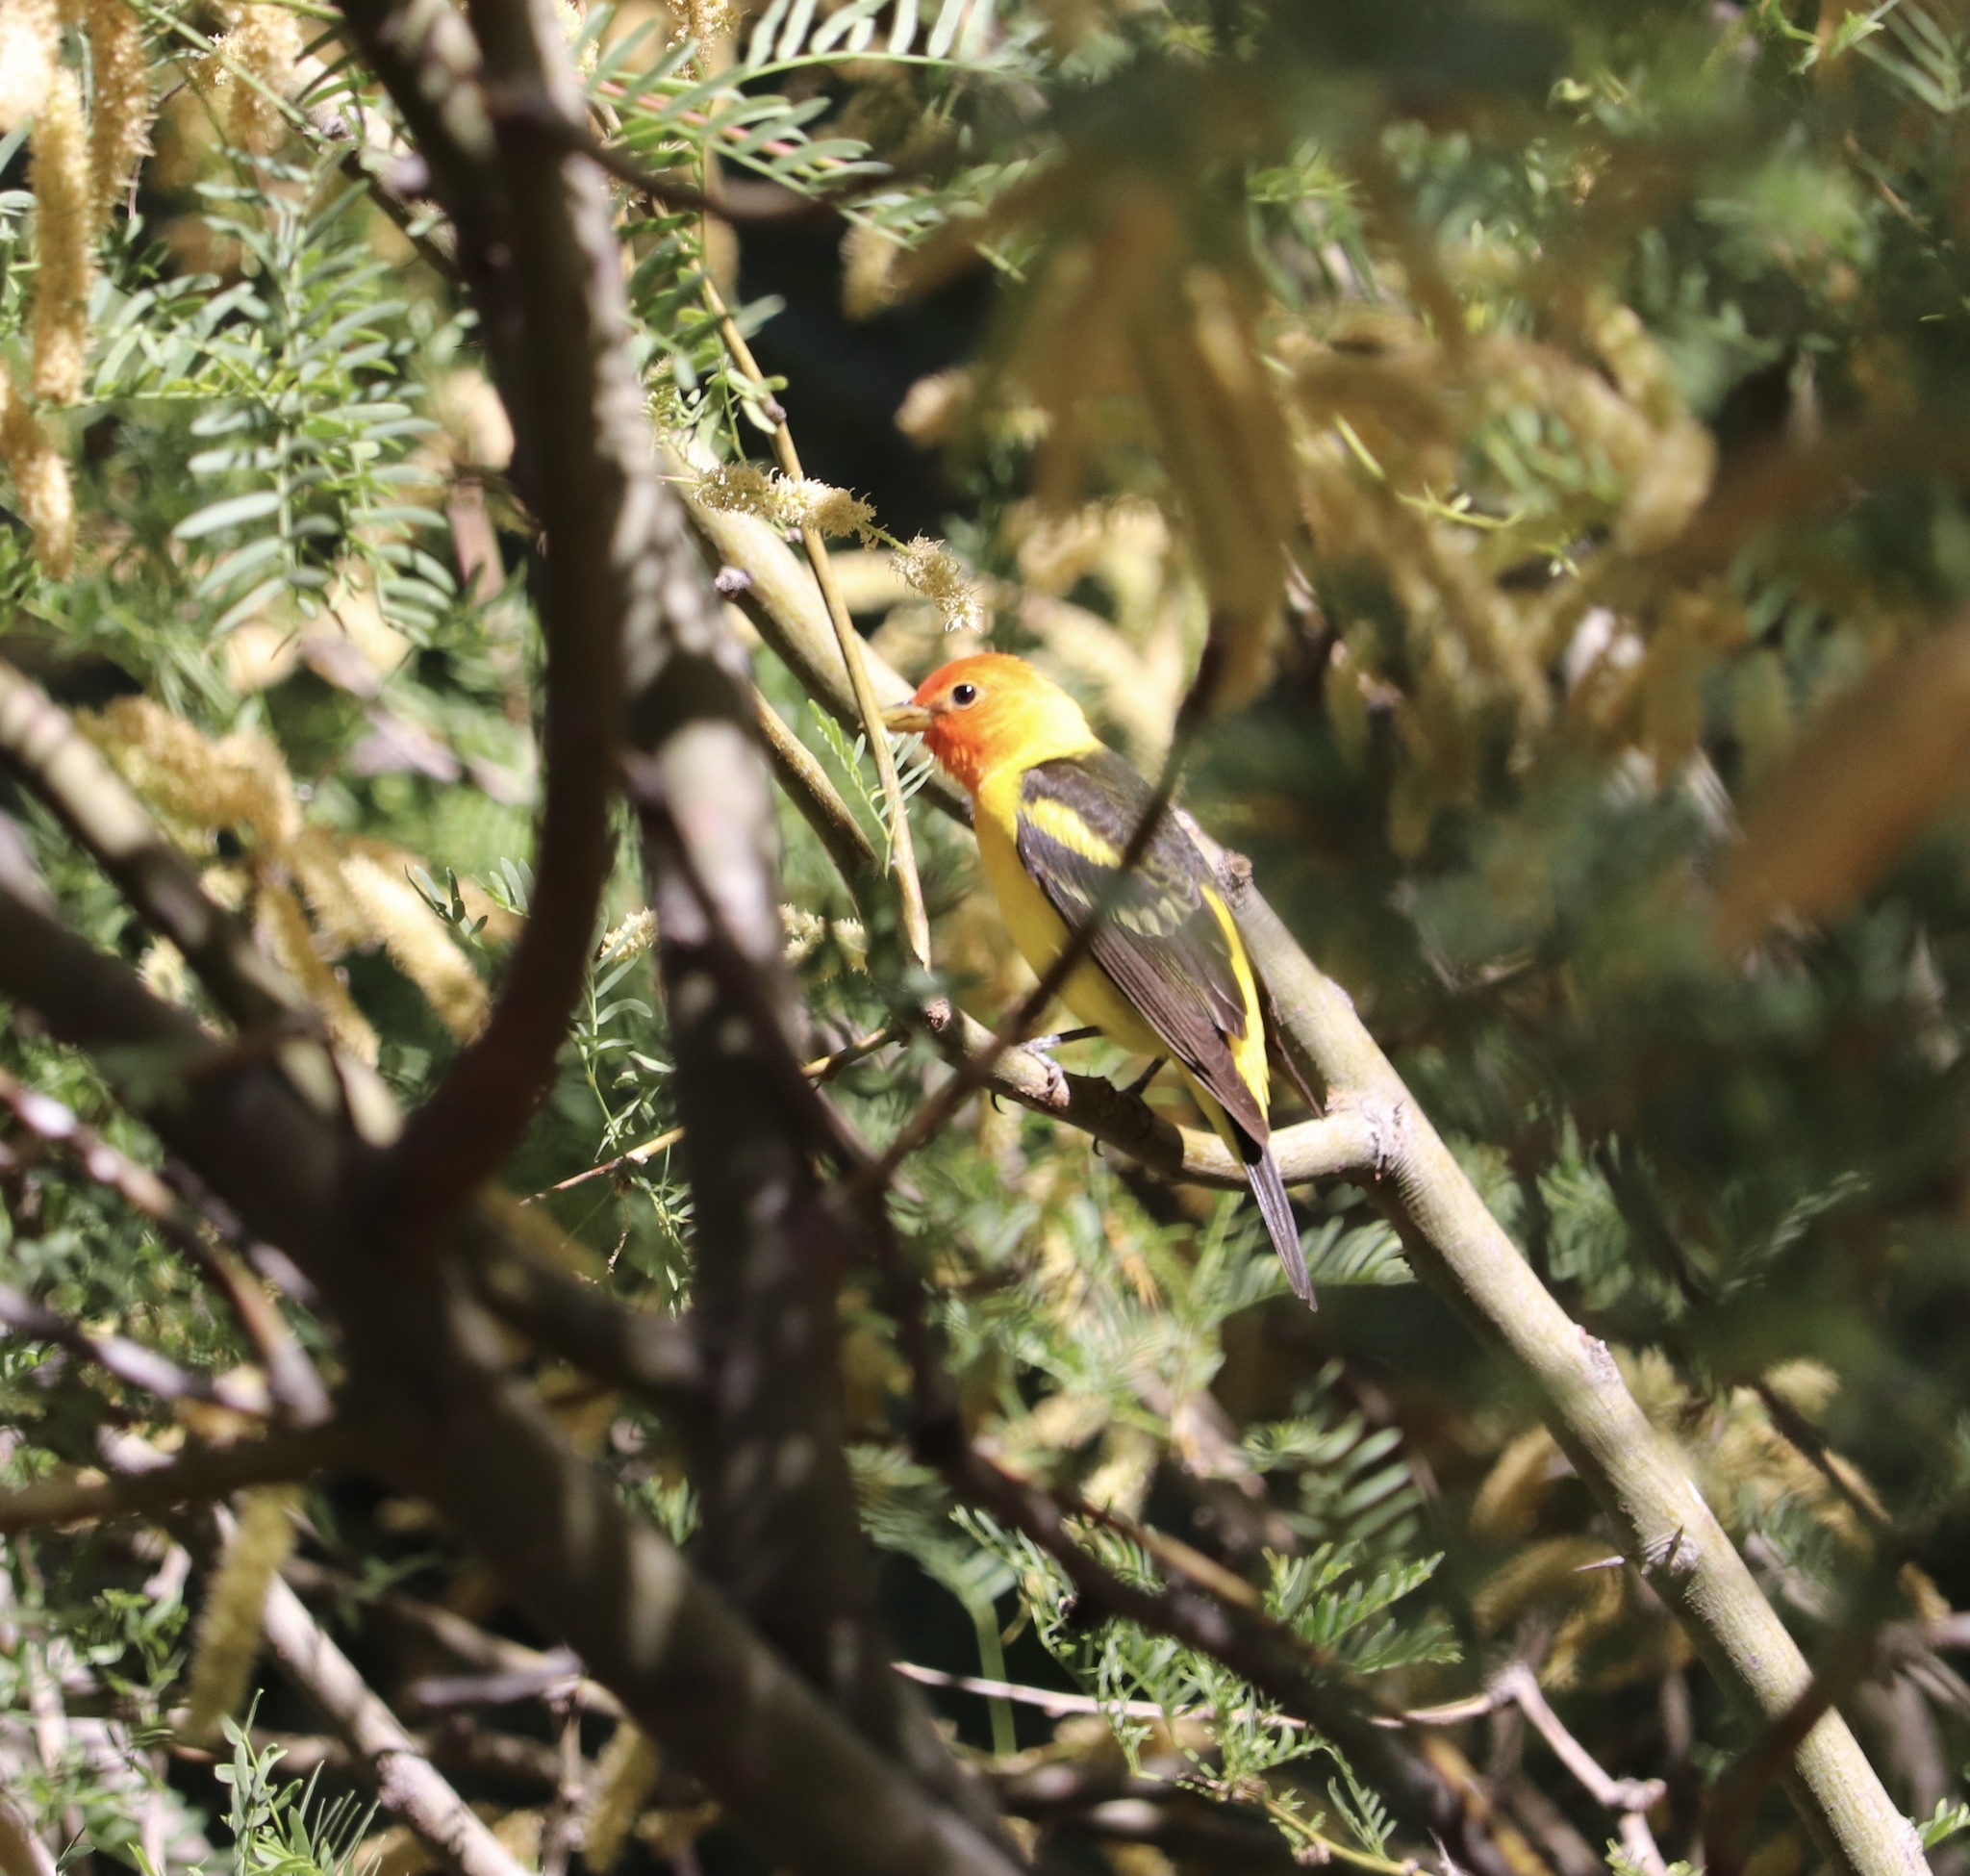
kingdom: Animalia
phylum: Chordata
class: Aves
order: Passeriformes
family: Cardinalidae
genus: Piranga
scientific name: Piranga ludoviciana
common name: Western tanager
